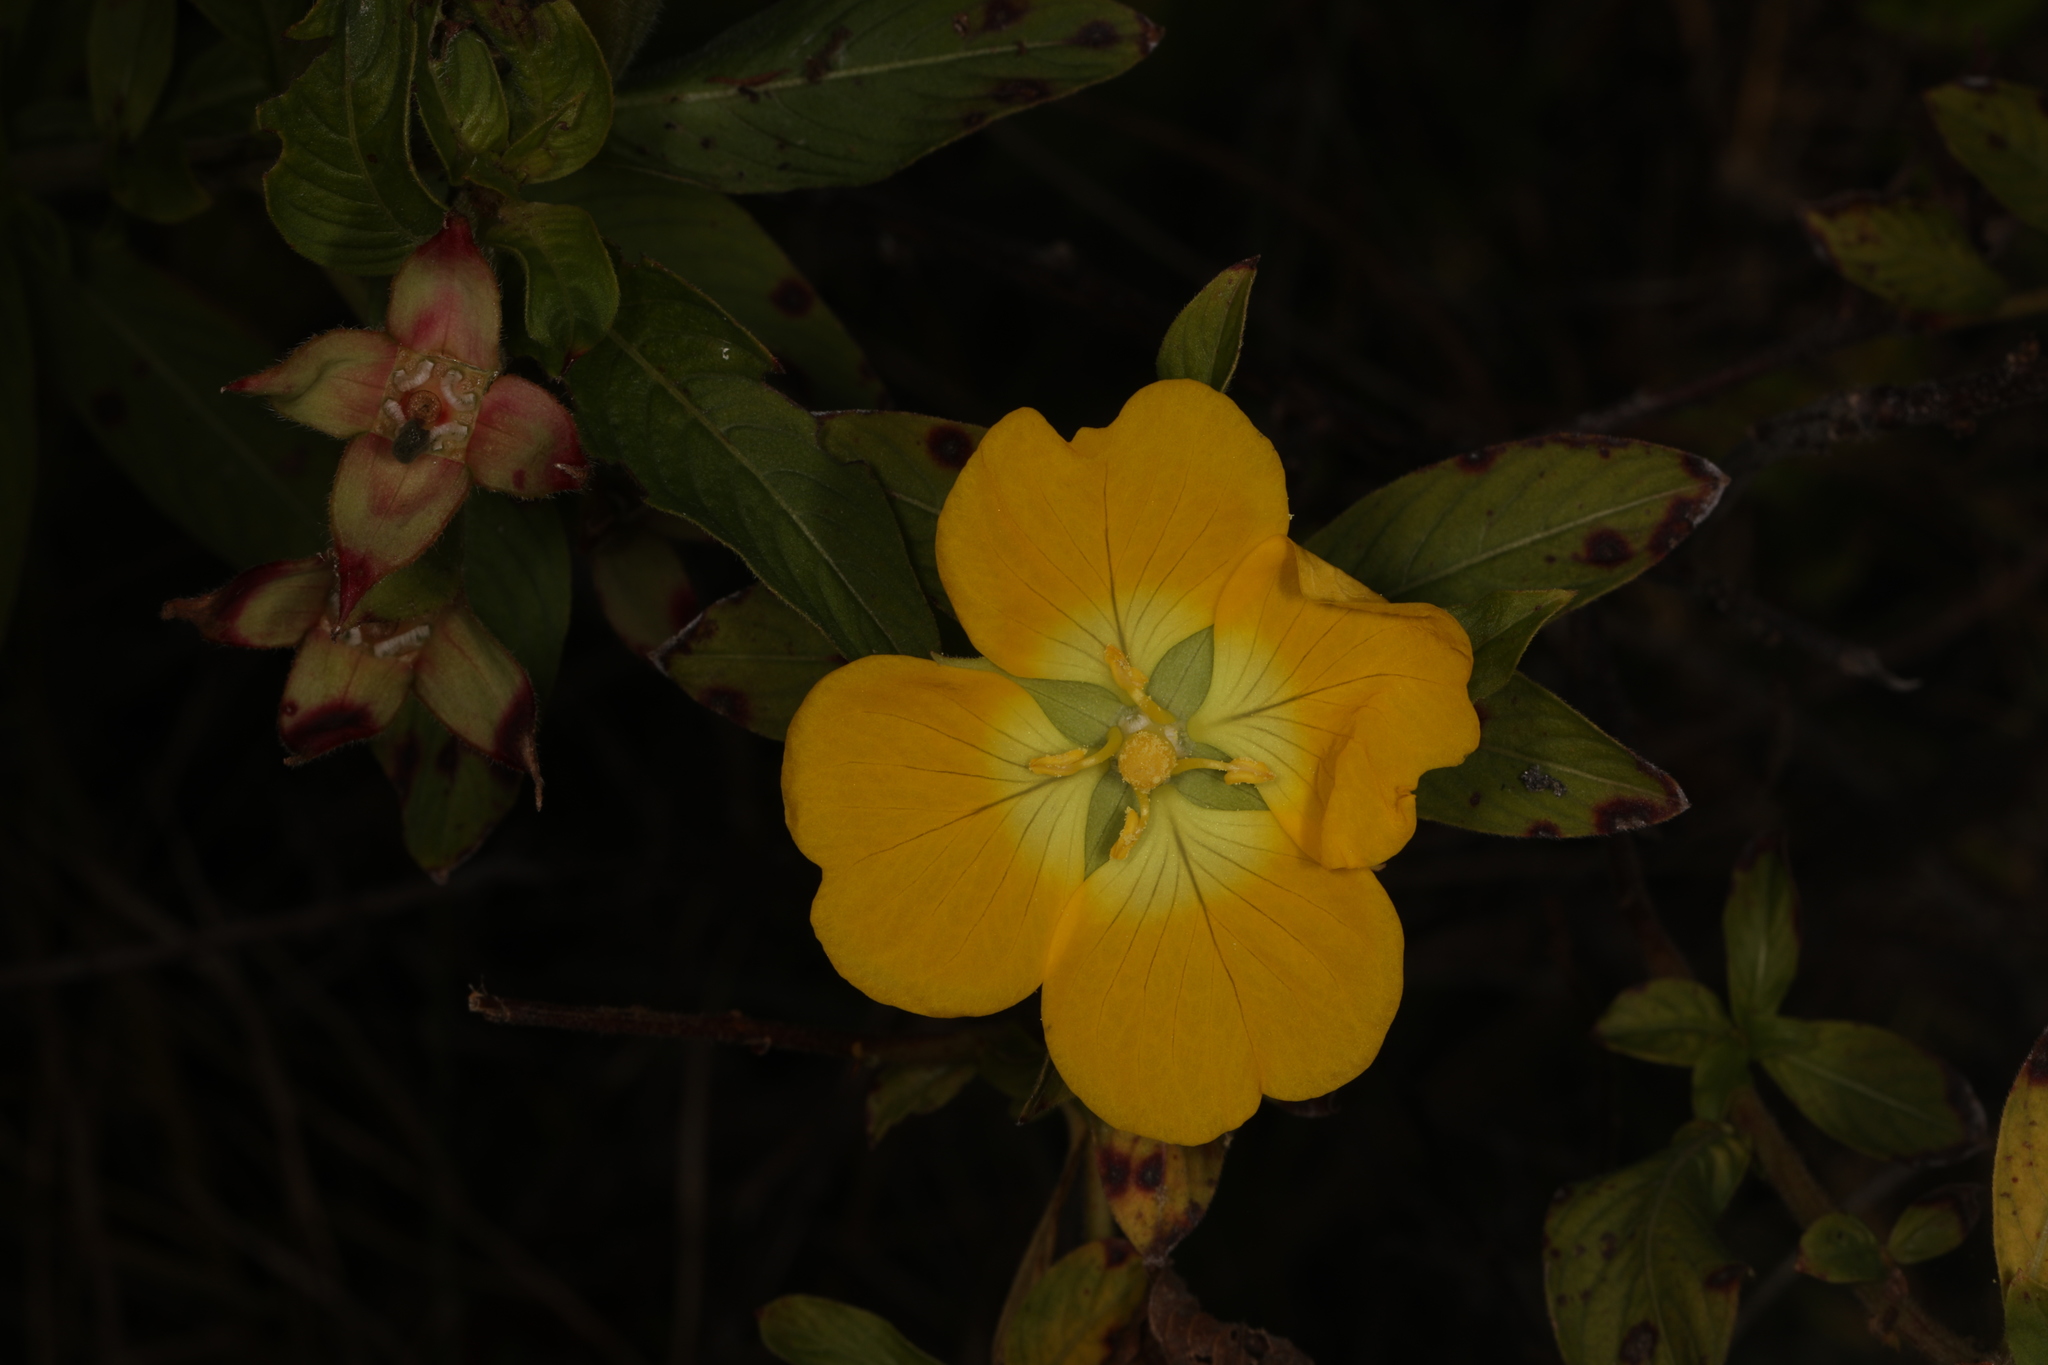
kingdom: Plantae
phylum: Tracheophyta
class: Magnoliopsida
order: Myrtales
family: Onagraceae
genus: Ludwigia
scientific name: Ludwigia peruviana
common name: Peruvian primrose-willow
